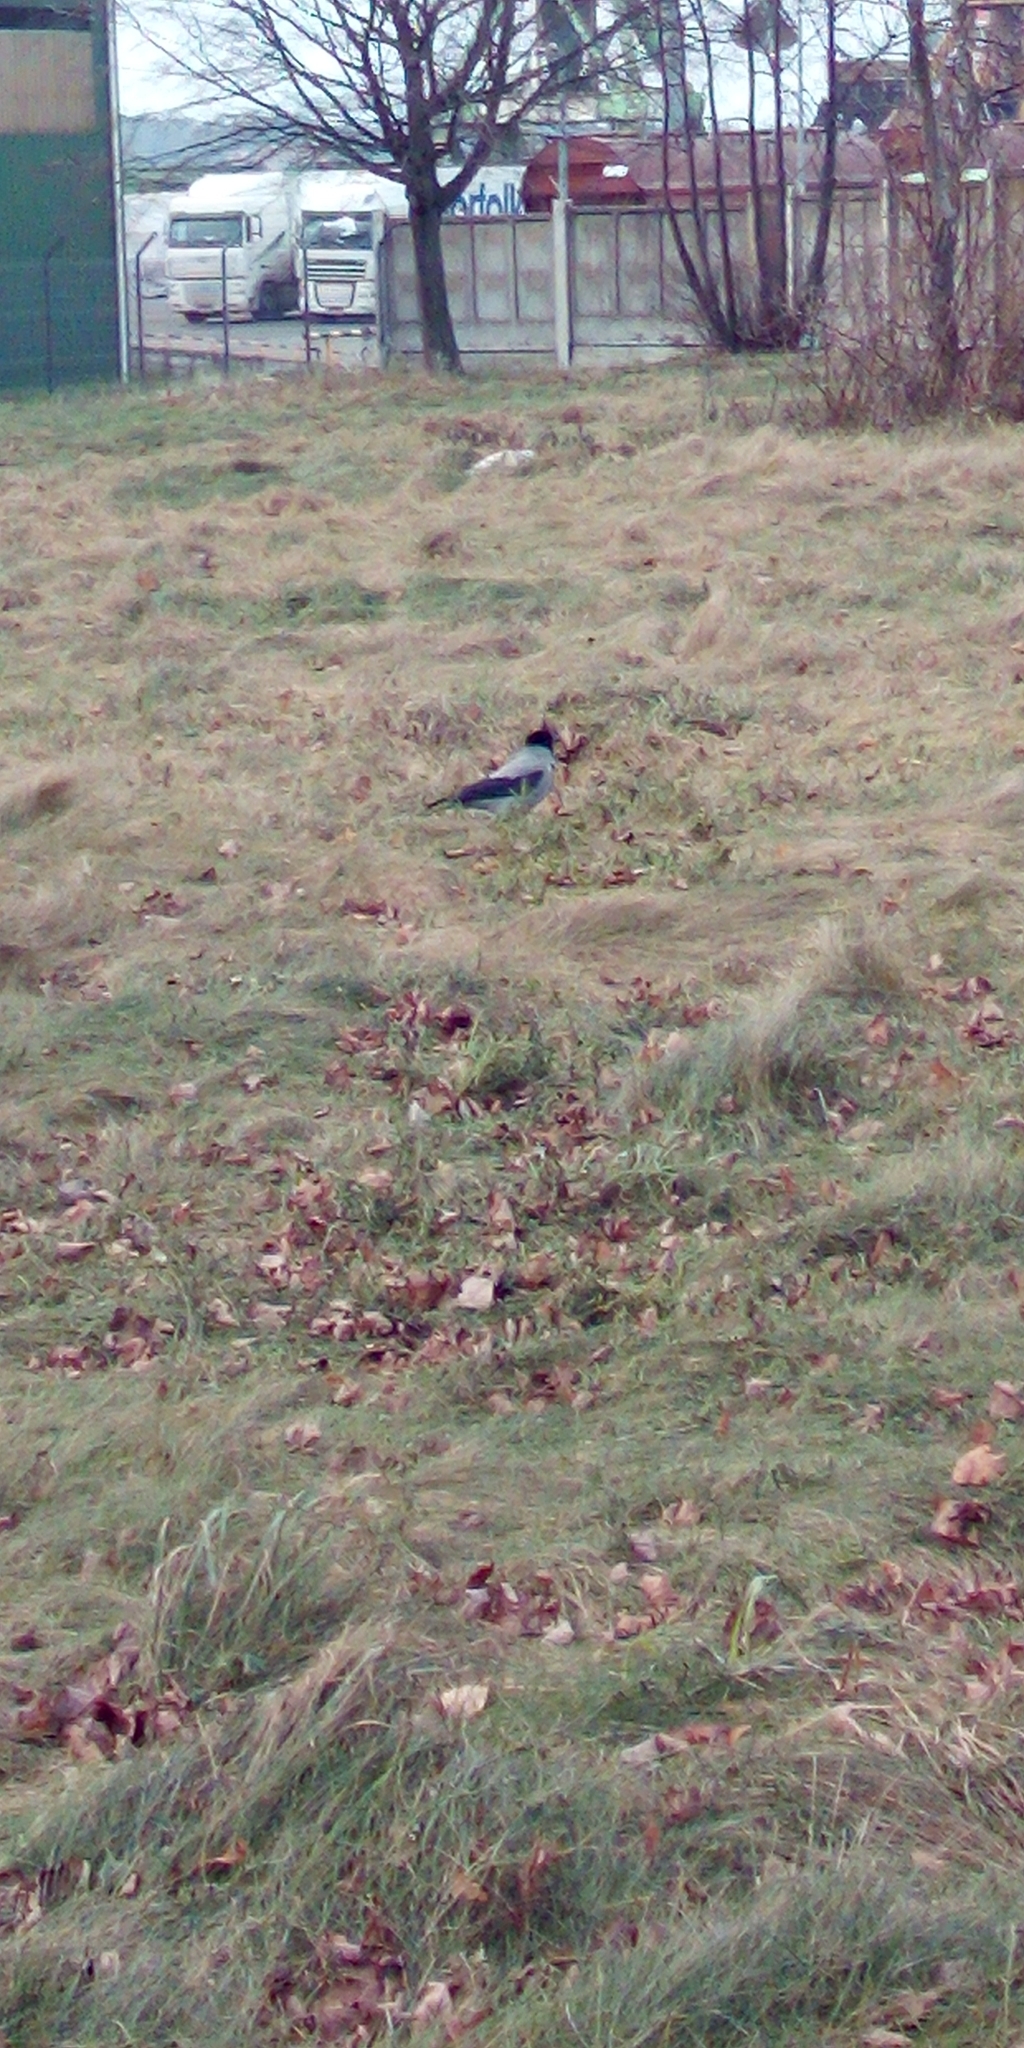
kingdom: Animalia
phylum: Chordata
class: Aves
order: Passeriformes
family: Corvidae
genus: Corvus
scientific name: Corvus cornix
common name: Hooded crow
